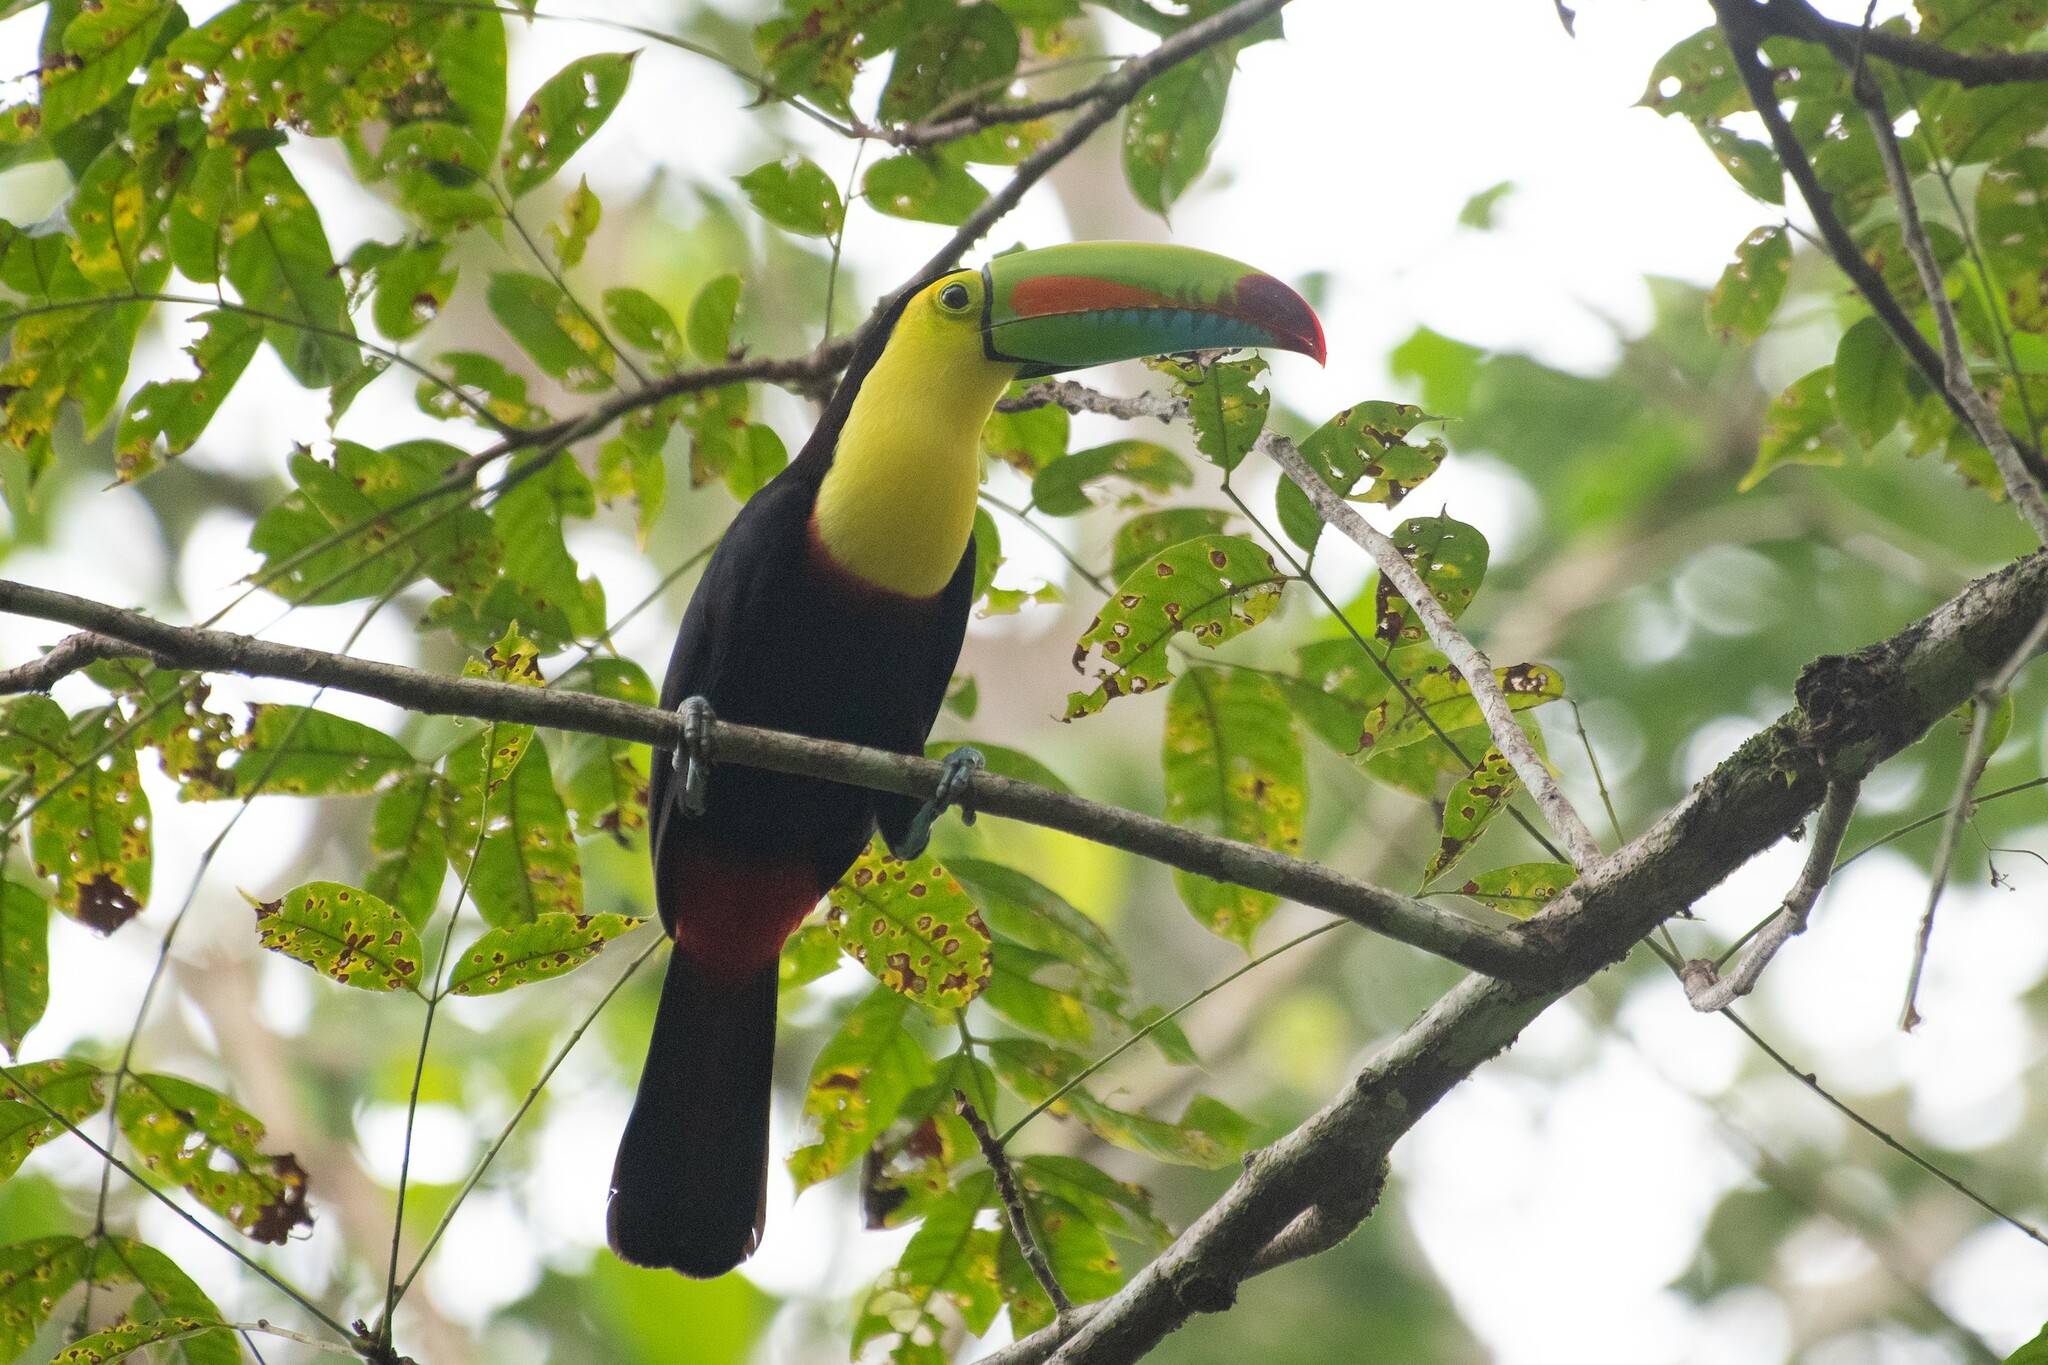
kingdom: Animalia
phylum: Chordata
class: Aves
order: Piciformes
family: Ramphastidae
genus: Ramphastos
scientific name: Ramphastos sulfuratus
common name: Keel-billed toucan
